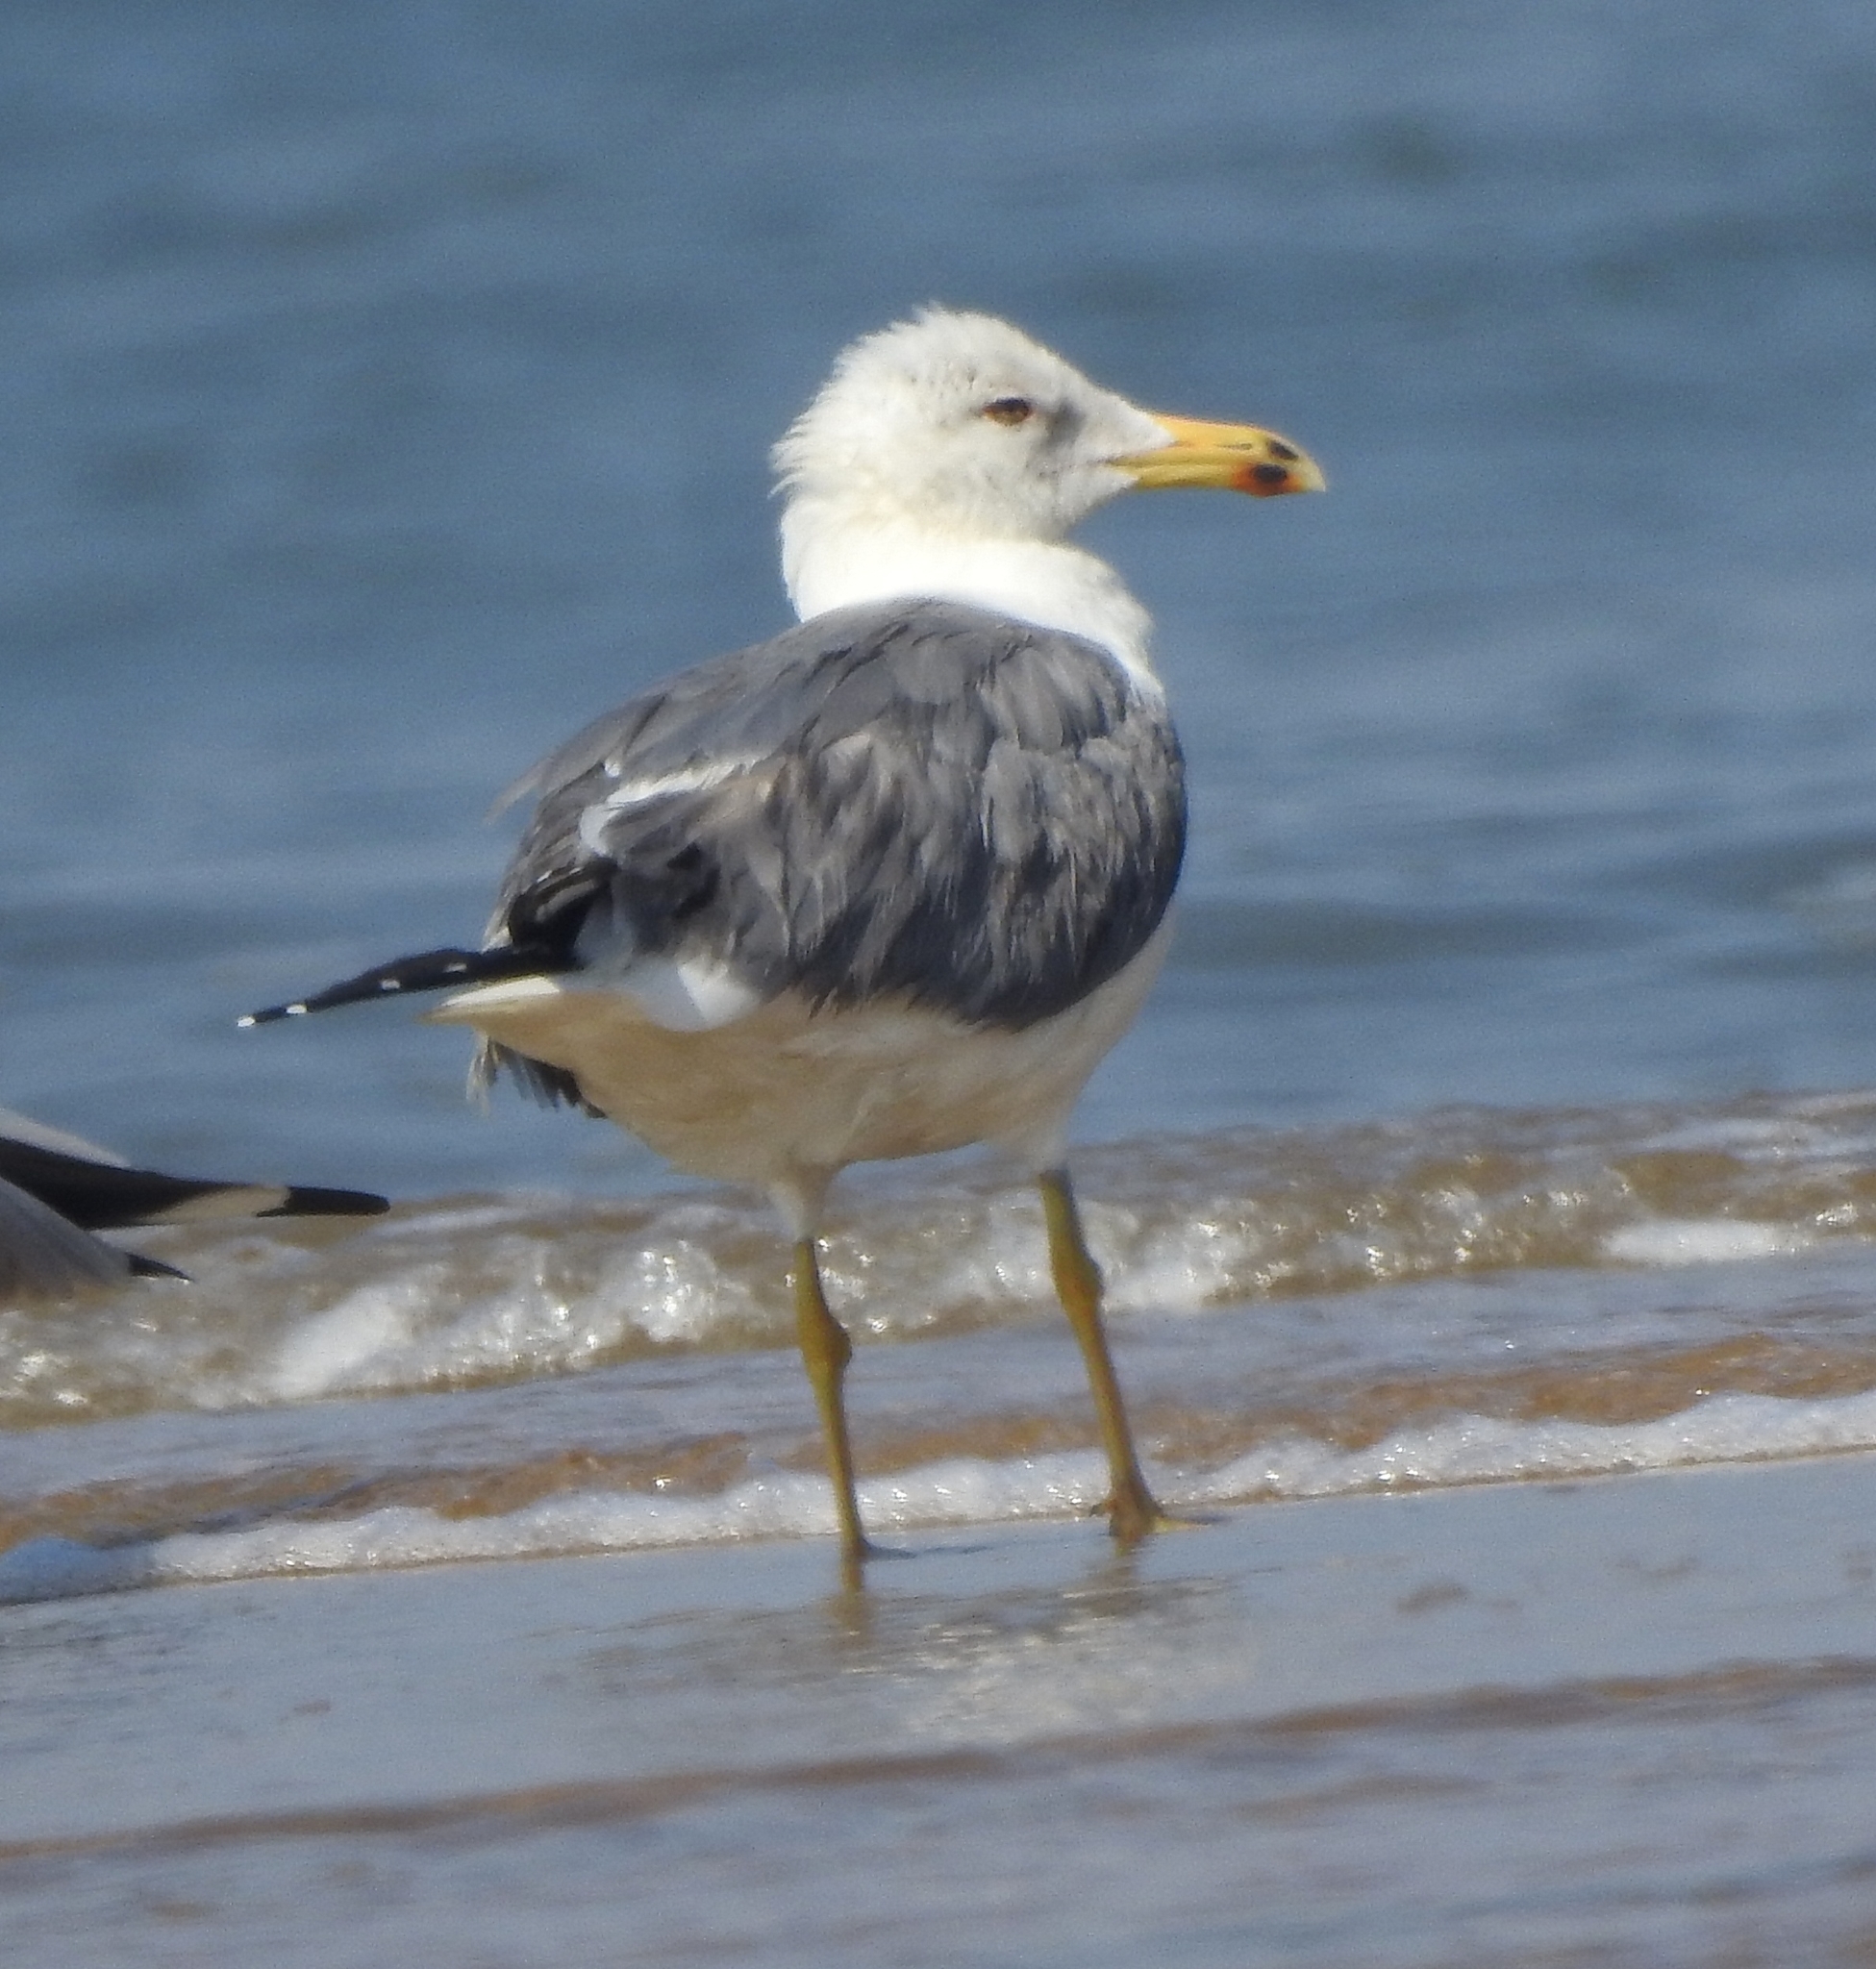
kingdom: Animalia
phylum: Chordata
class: Aves
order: Charadriiformes
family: Laridae
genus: Larus
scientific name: Larus fuscus
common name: Lesser black-backed gull
